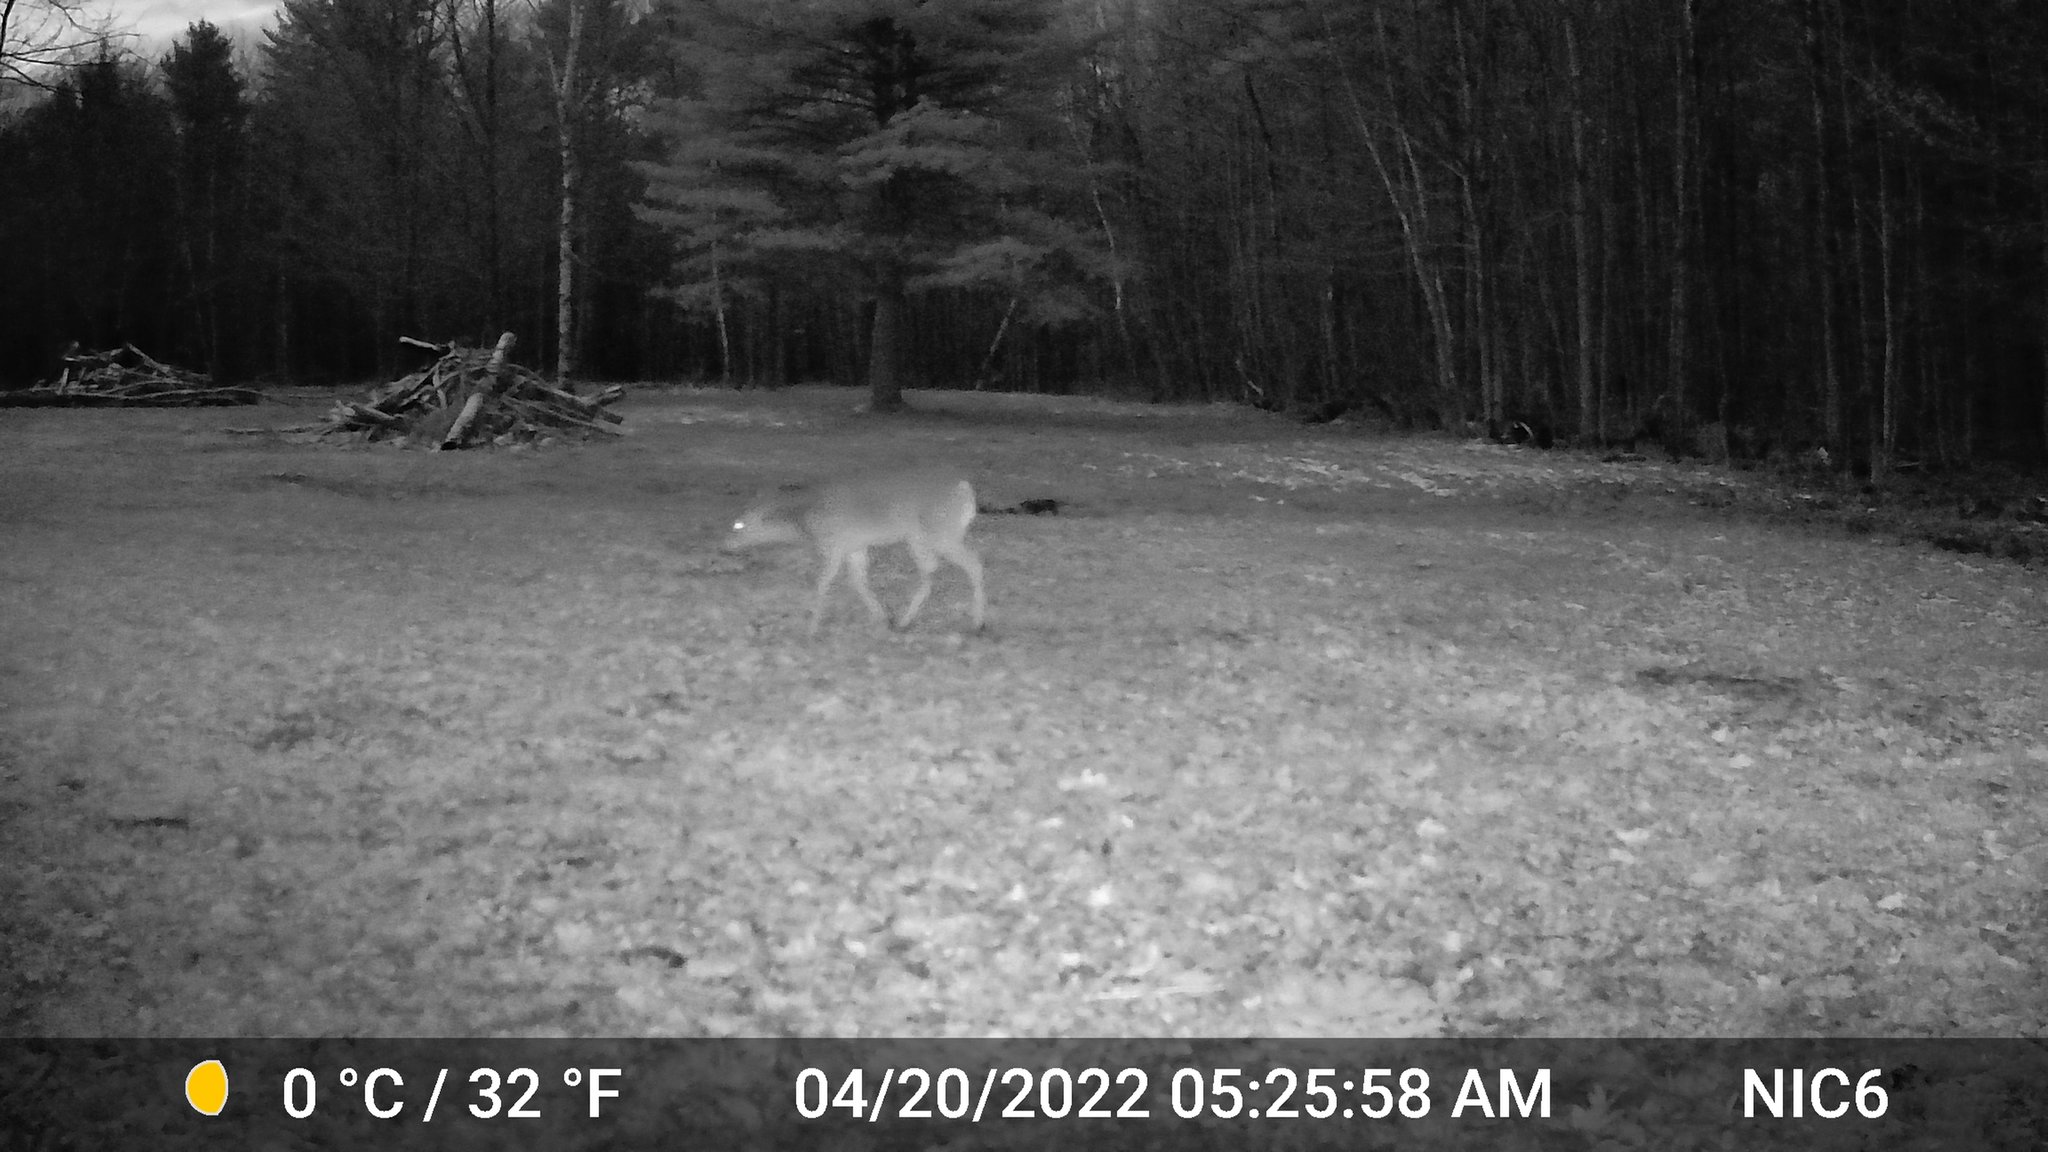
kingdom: Animalia
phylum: Chordata
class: Mammalia
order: Artiodactyla
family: Cervidae
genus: Odocoileus
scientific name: Odocoileus virginianus
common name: White-tailed deer
